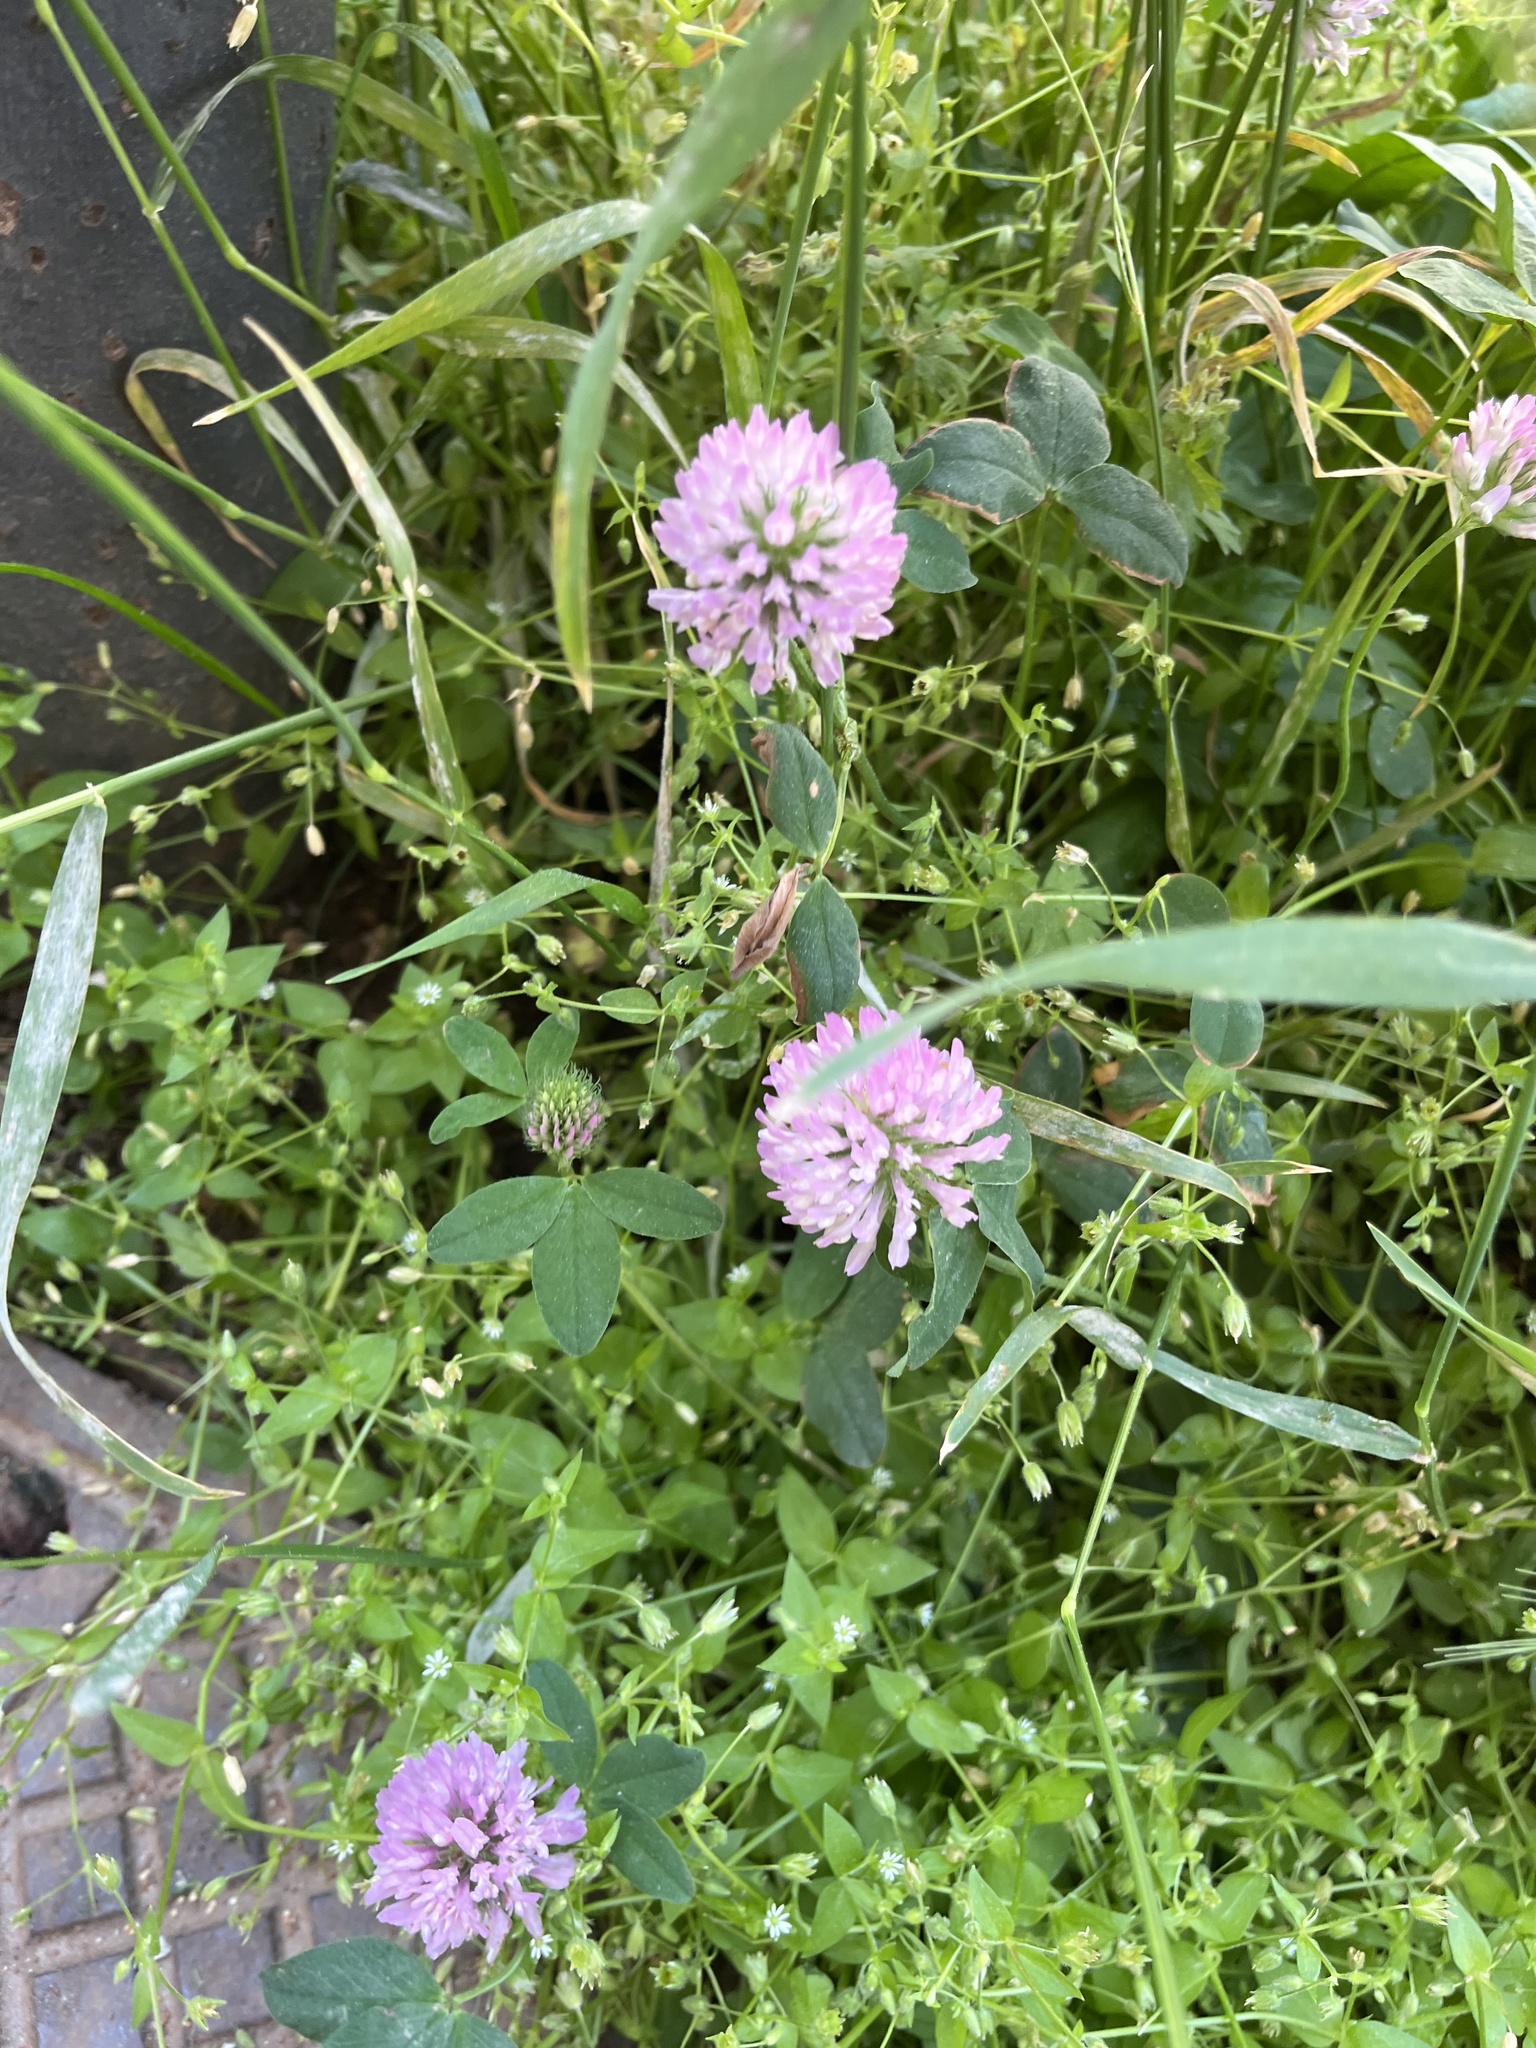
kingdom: Plantae
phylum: Tracheophyta
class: Magnoliopsida
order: Fabales
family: Fabaceae
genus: Trifolium
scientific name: Trifolium pratense
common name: Red clover
